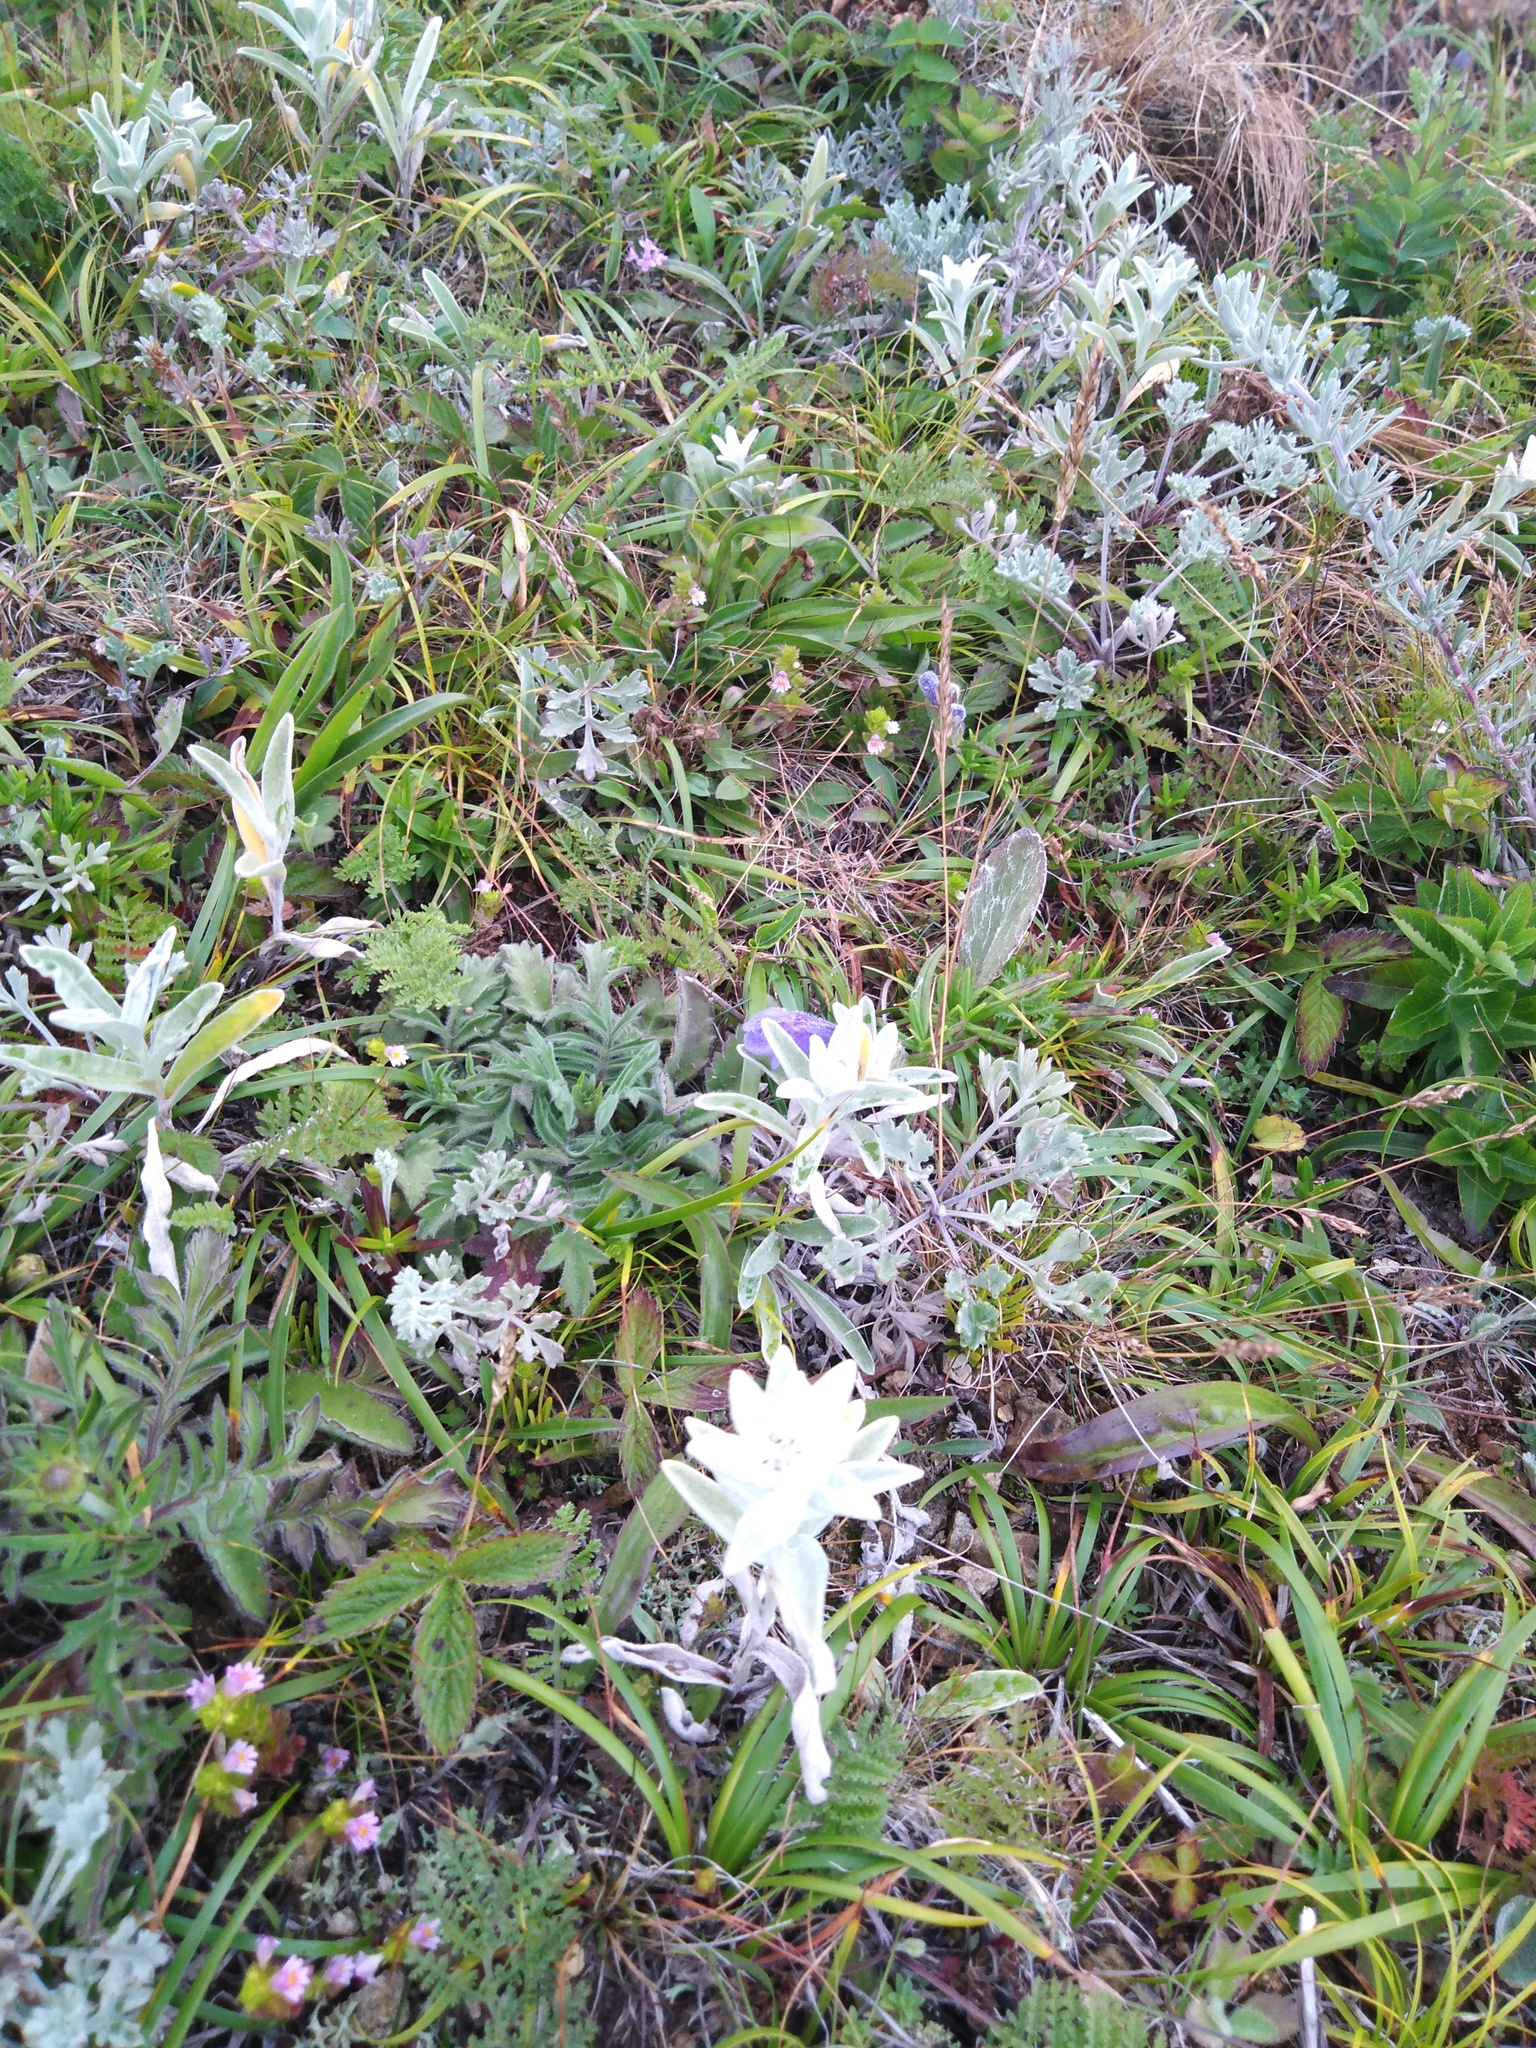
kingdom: Plantae
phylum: Tracheophyta
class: Magnoliopsida
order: Asterales
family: Asteraceae
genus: Leontopodium
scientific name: Leontopodium palibinianum
